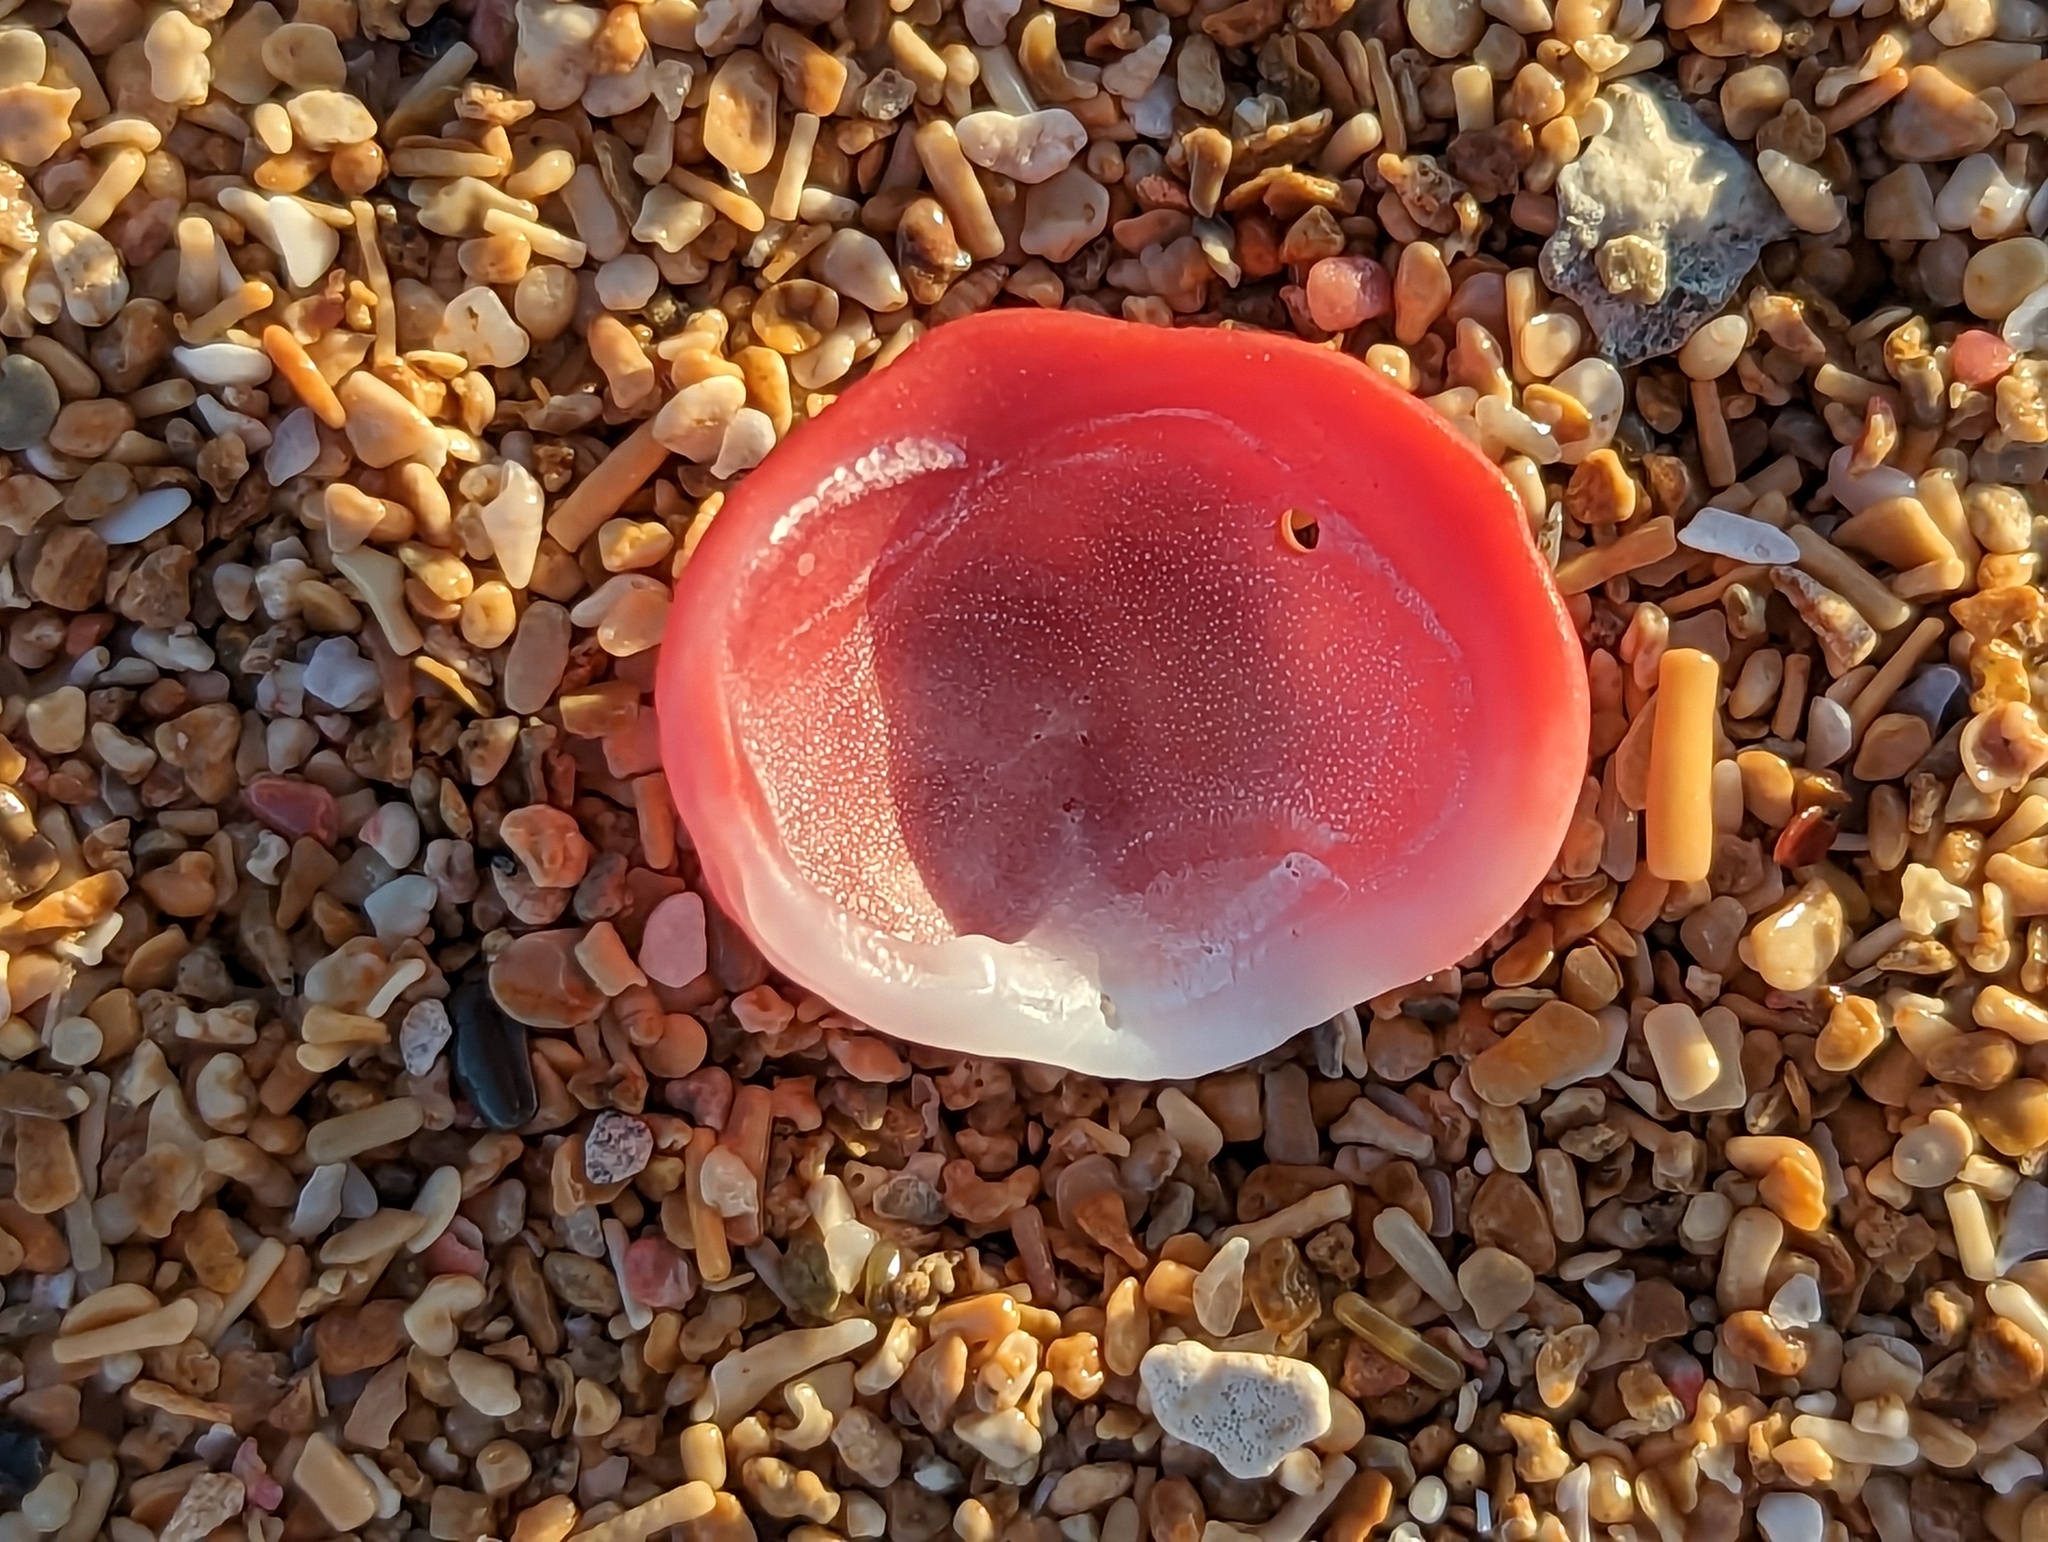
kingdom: Animalia
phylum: Mollusca
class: Bivalvia
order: Venerida
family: Chamidae
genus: Chama
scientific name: Chama sarda
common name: Cherry jewelbox
